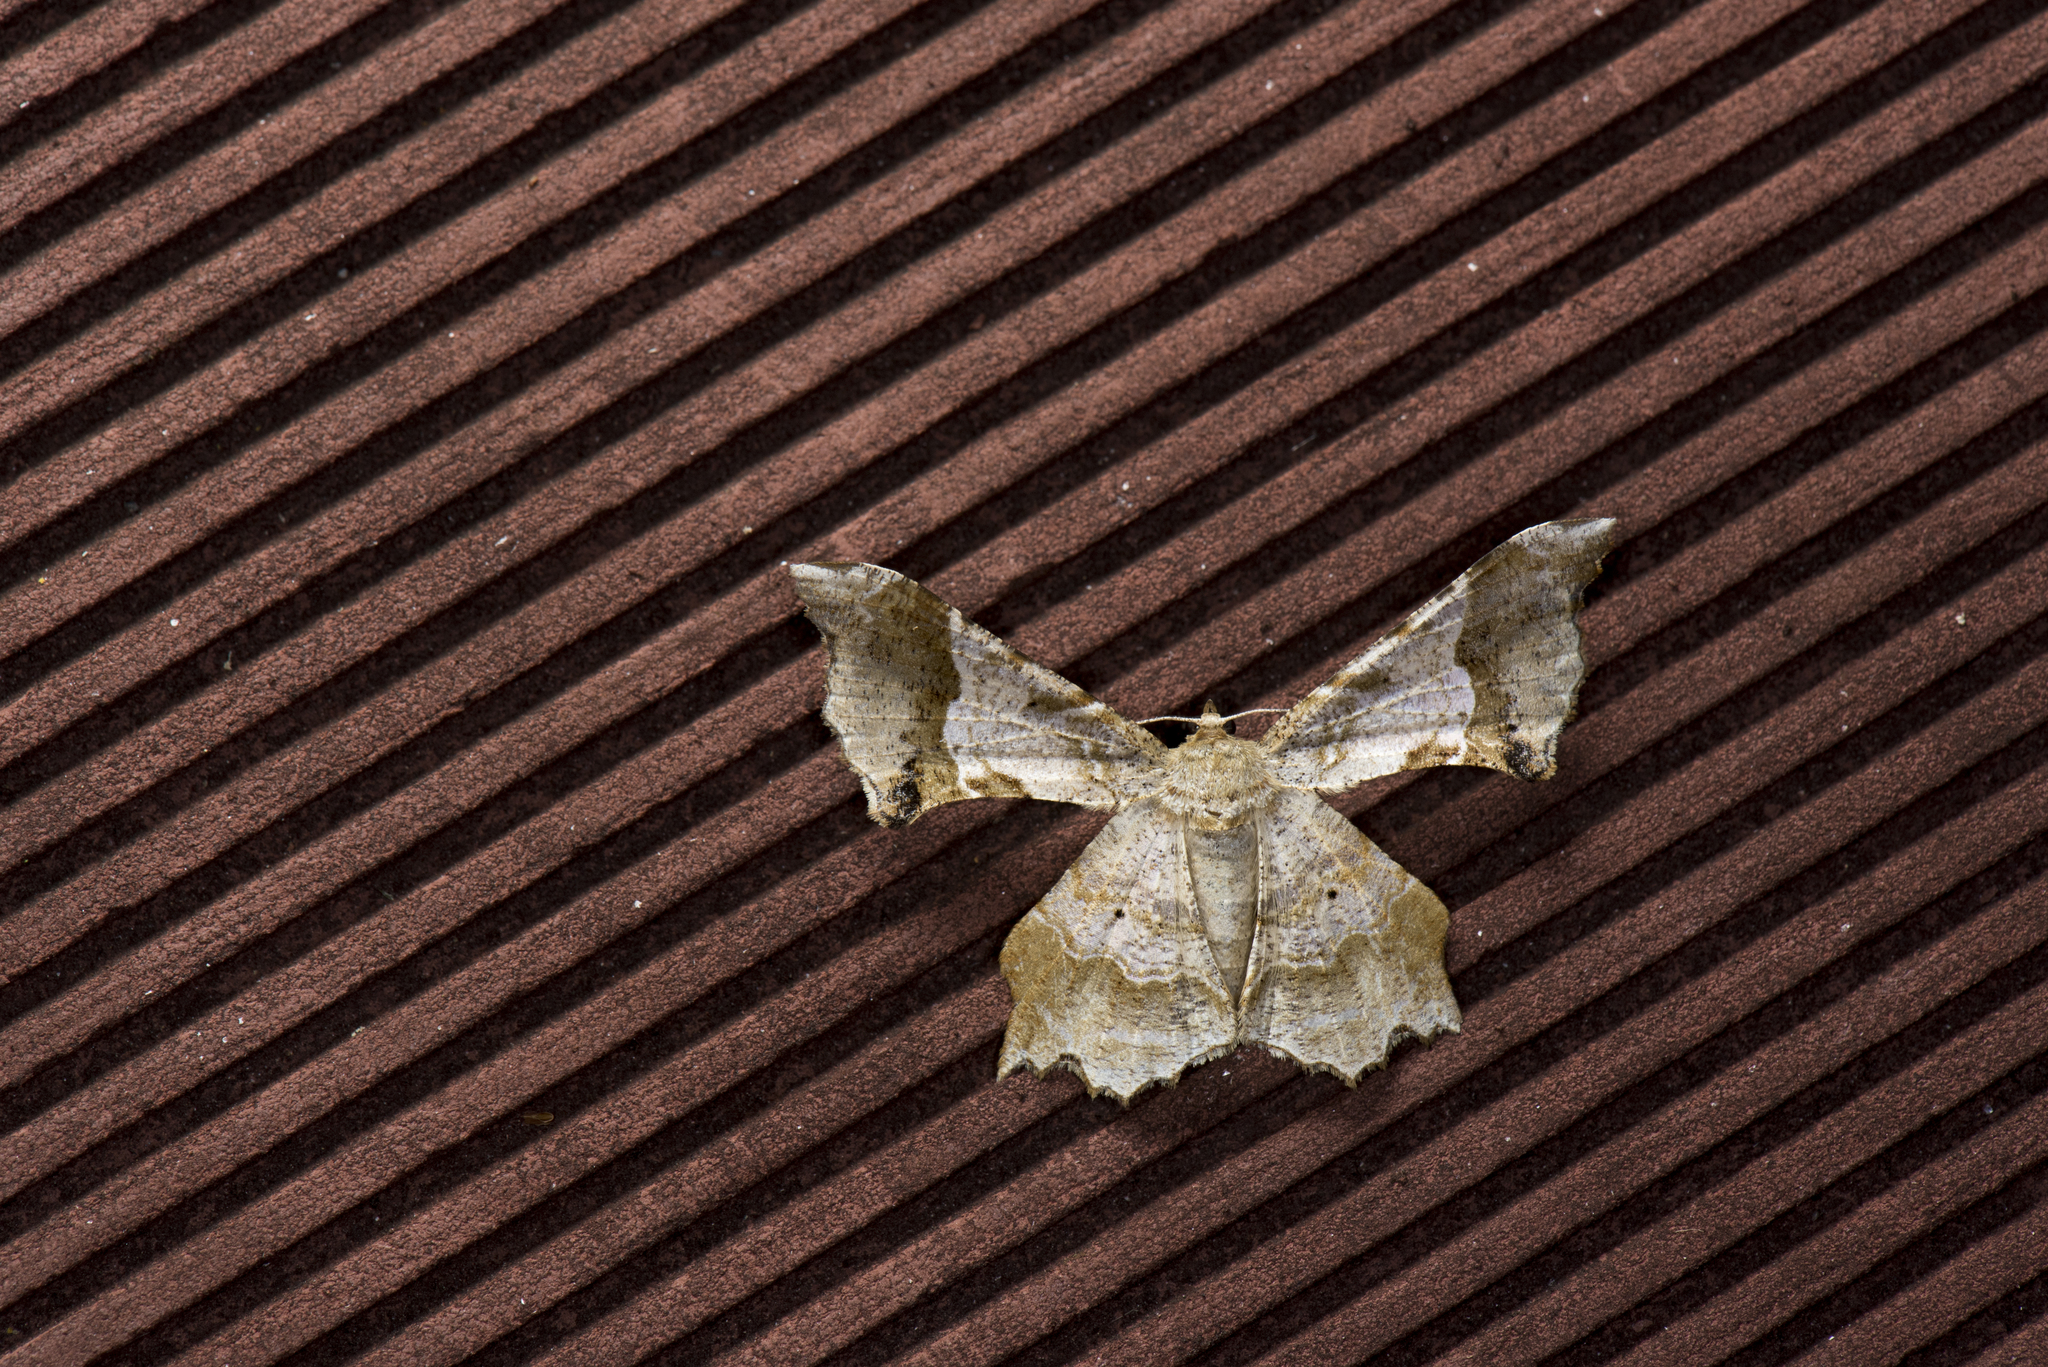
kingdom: Animalia
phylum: Arthropoda
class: Insecta
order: Lepidoptera
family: Geometridae
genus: Krananda
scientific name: Krananda oliveomarginata
